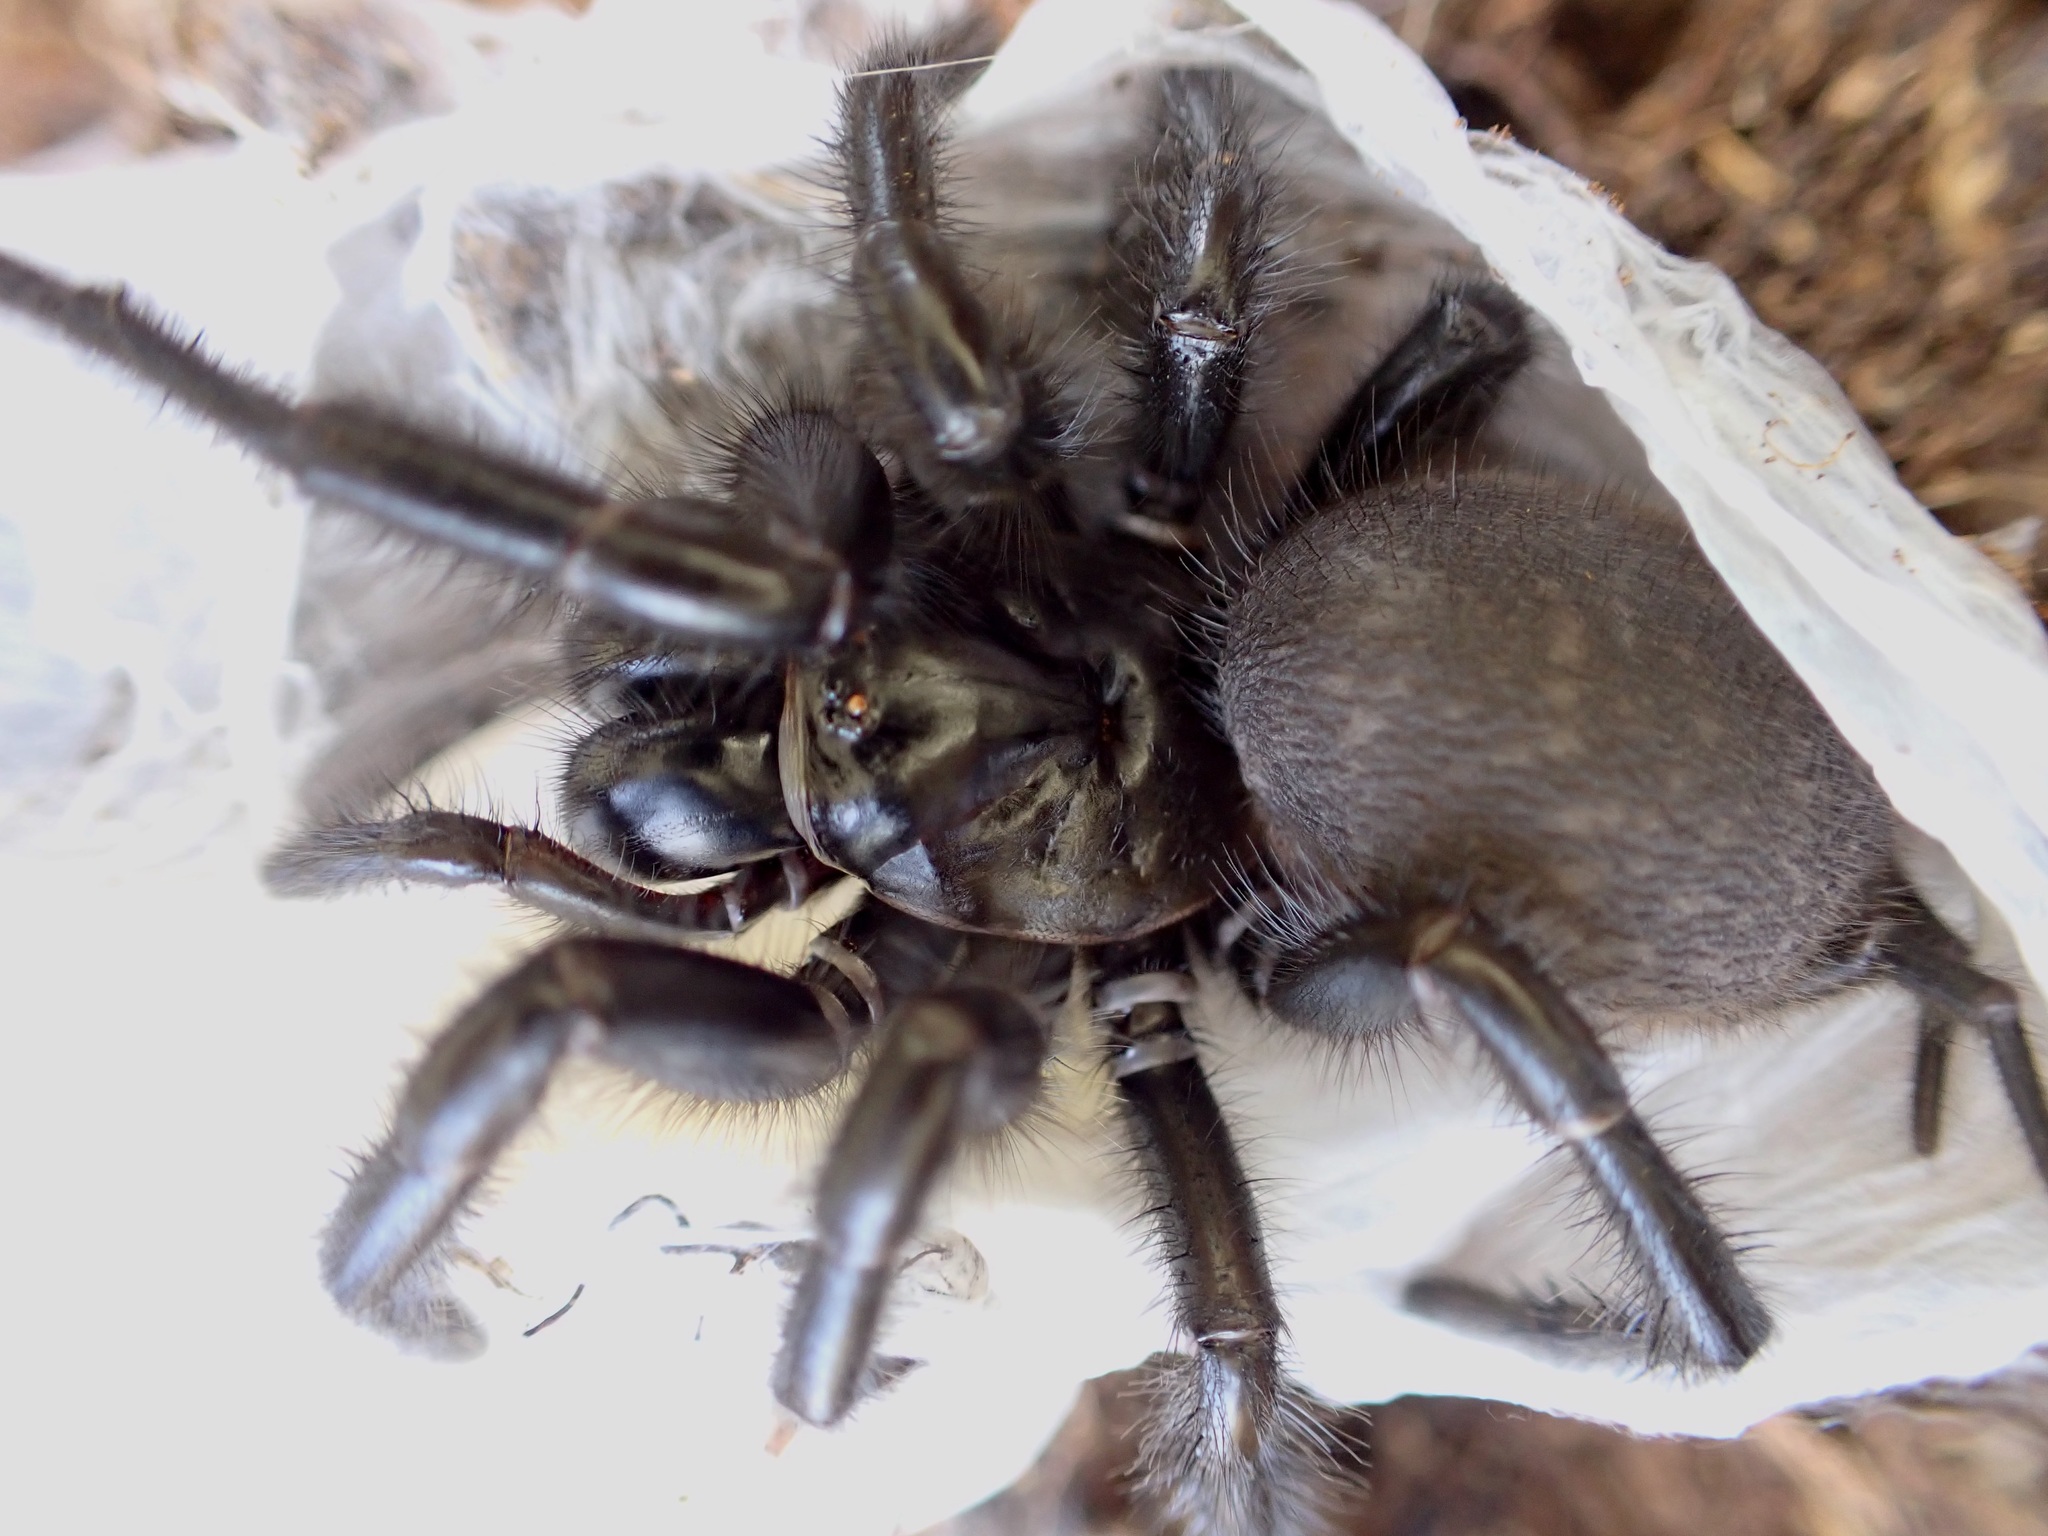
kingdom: Animalia
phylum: Arthropoda
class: Arachnida
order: Araneae
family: Porrhothelidae
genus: Porrhothele
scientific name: Porrhothele antipodiana
